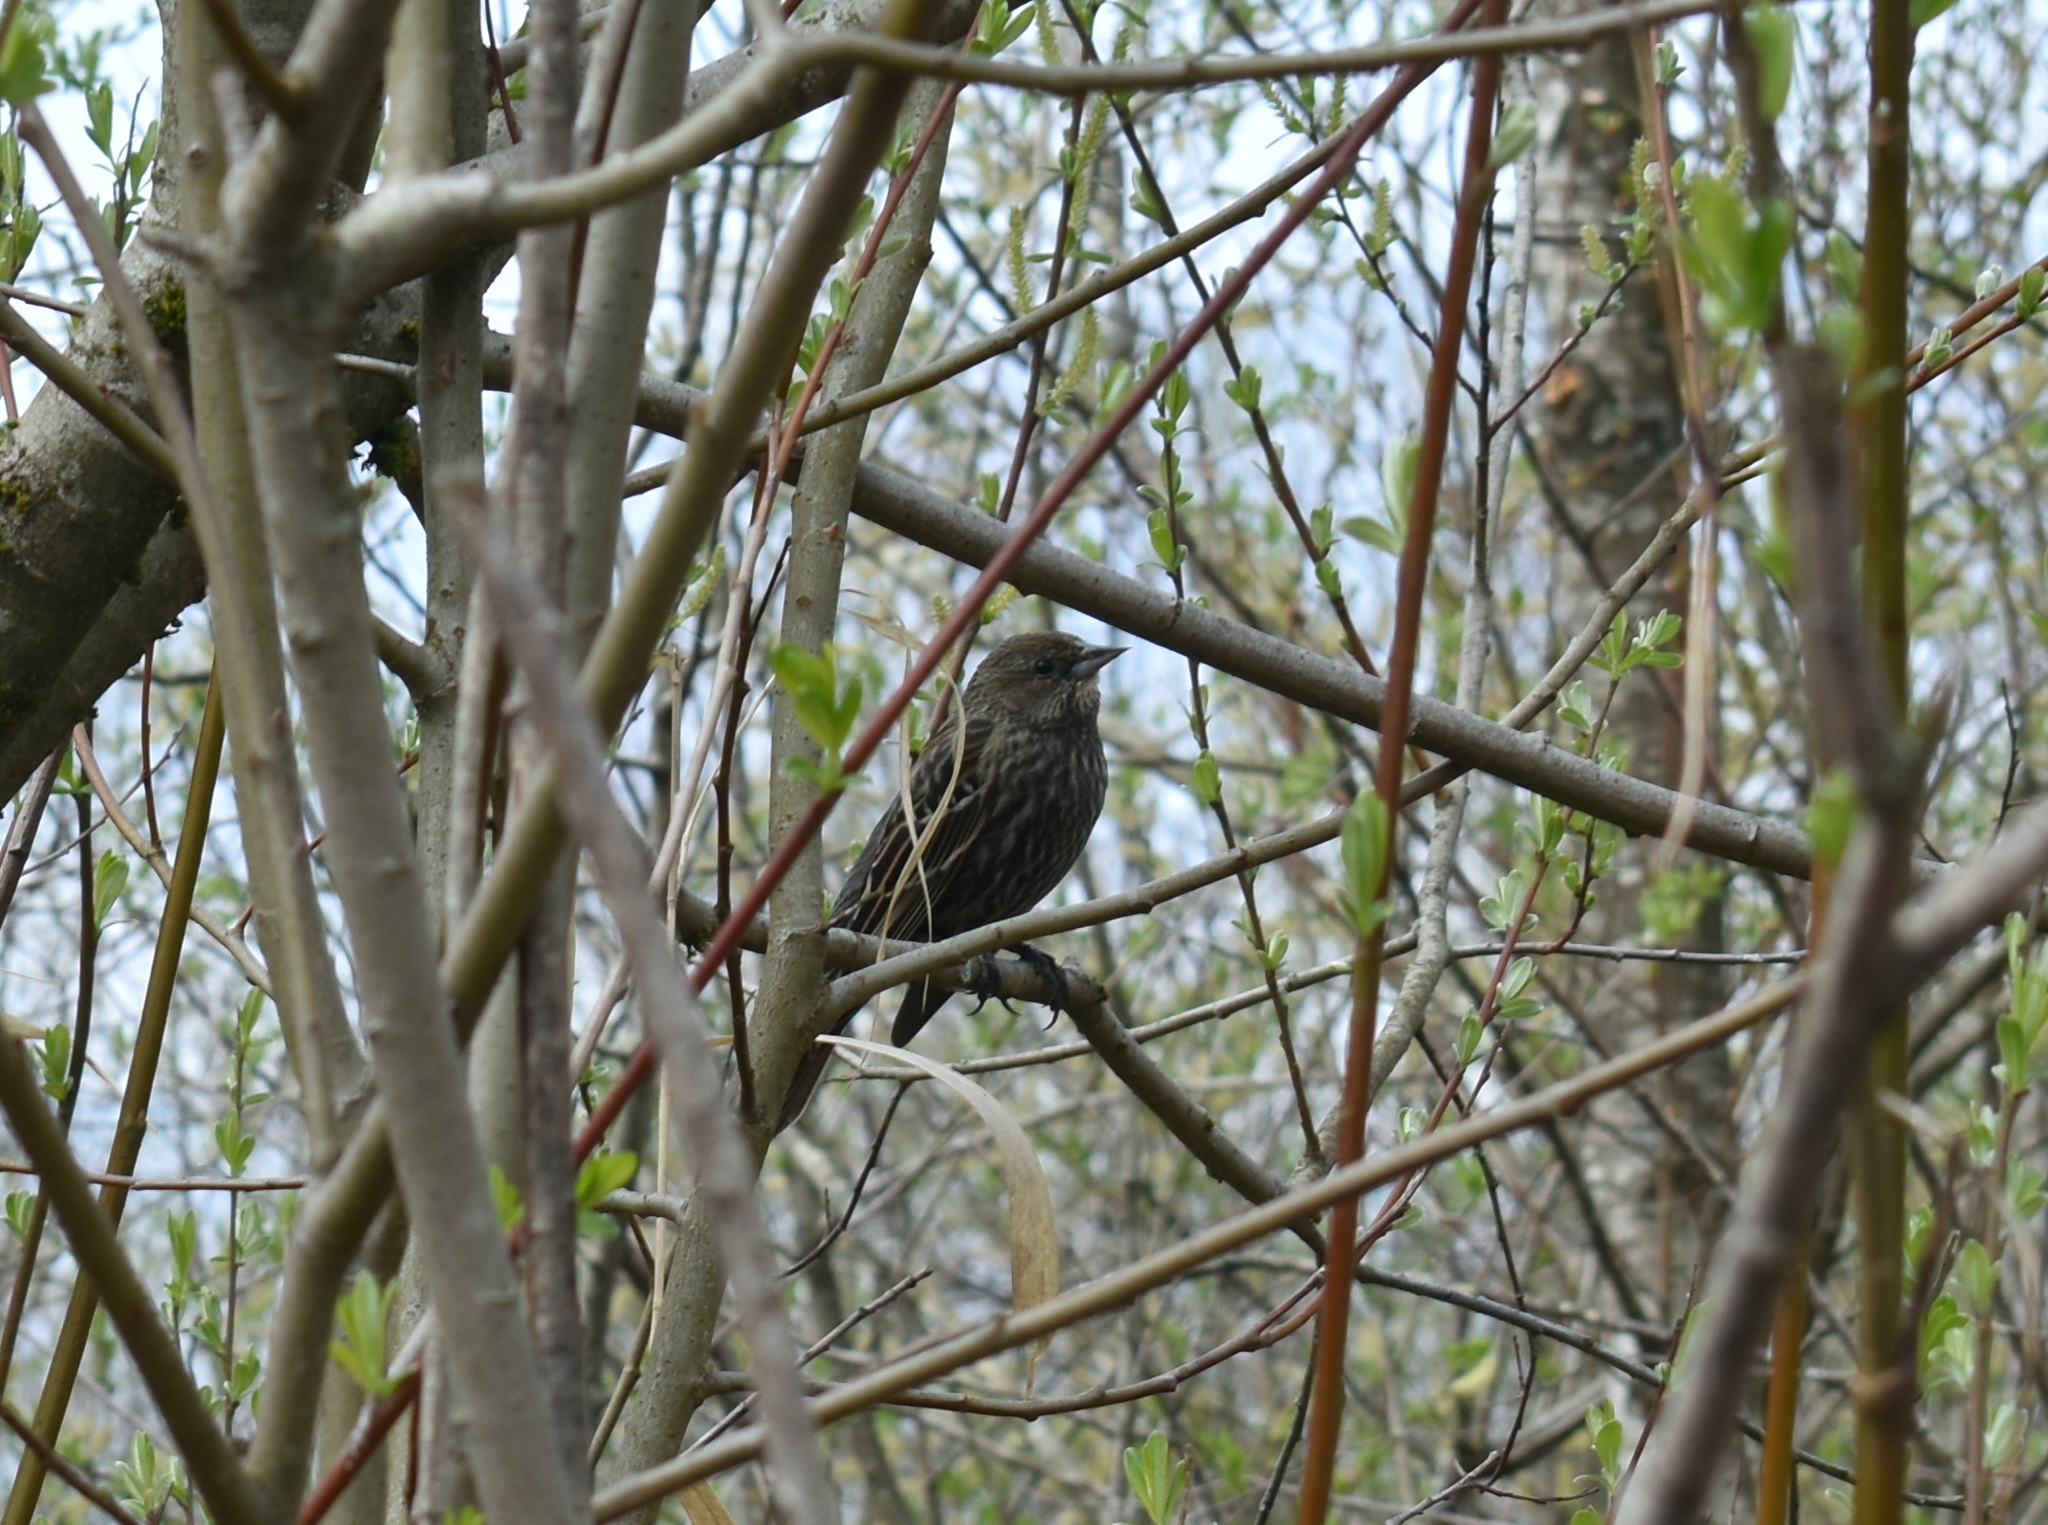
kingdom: Animalia
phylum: Chordata
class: Aves
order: Passeriformes
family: Icteridae
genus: Agelaius
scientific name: Agelaius phoeniceus
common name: Red-winged blackbird
